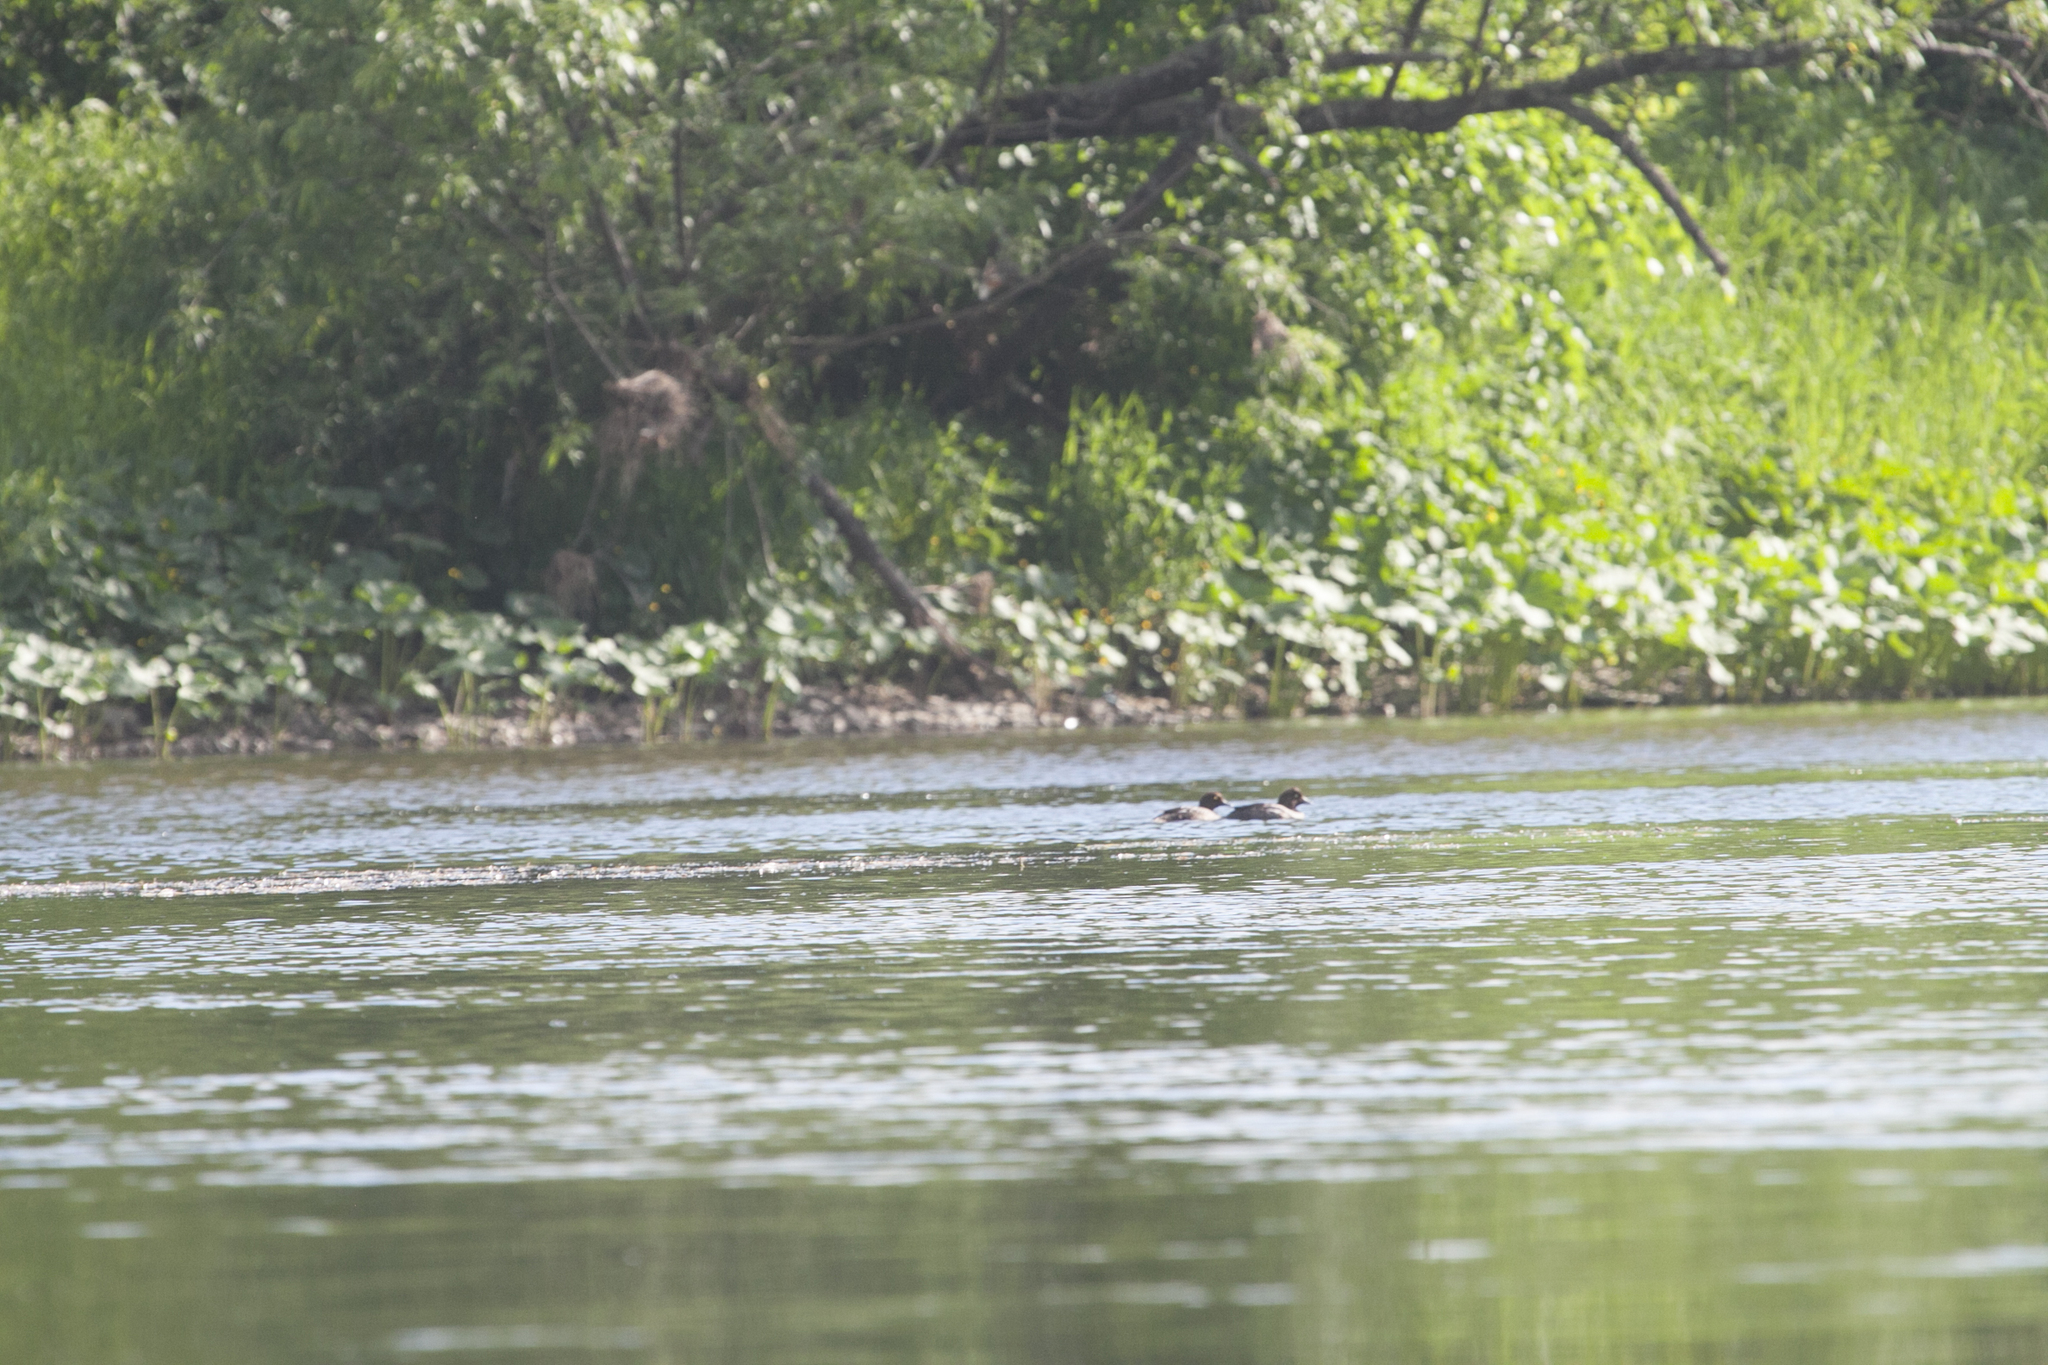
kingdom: Animalia
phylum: Chordata
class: Aves
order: Anseriformes
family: Anatidae
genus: Bucephala
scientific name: Bucephala clangula
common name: Common goldeneye
